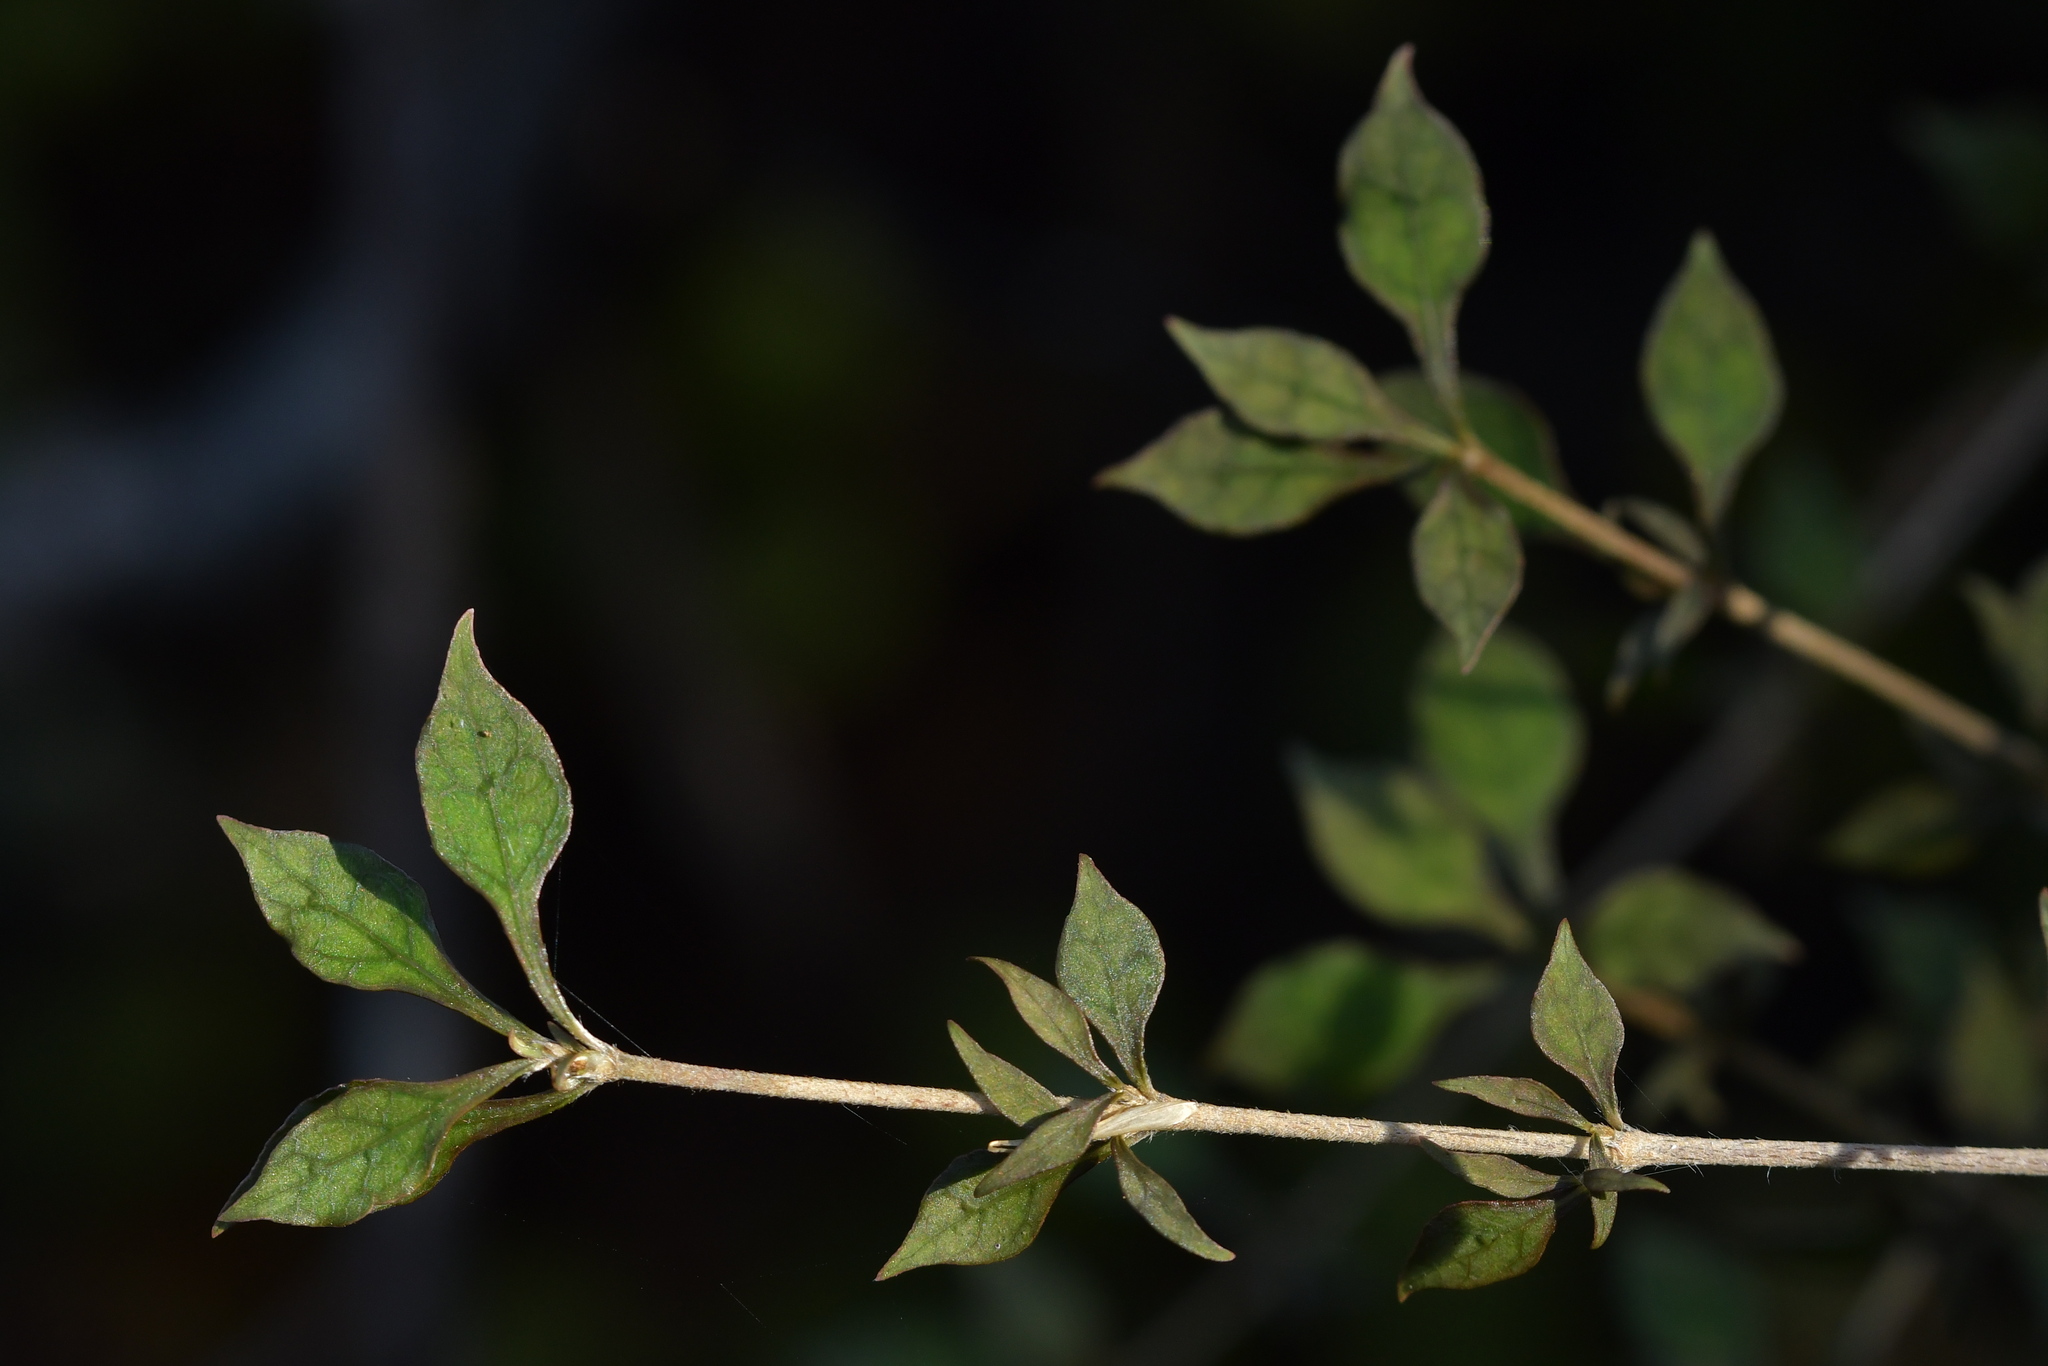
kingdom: Plantae
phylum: Tracheophyta
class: Magnoliopsida
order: Gentianales
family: Rubiaceae
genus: Coprosma
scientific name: Coprosma areolata
